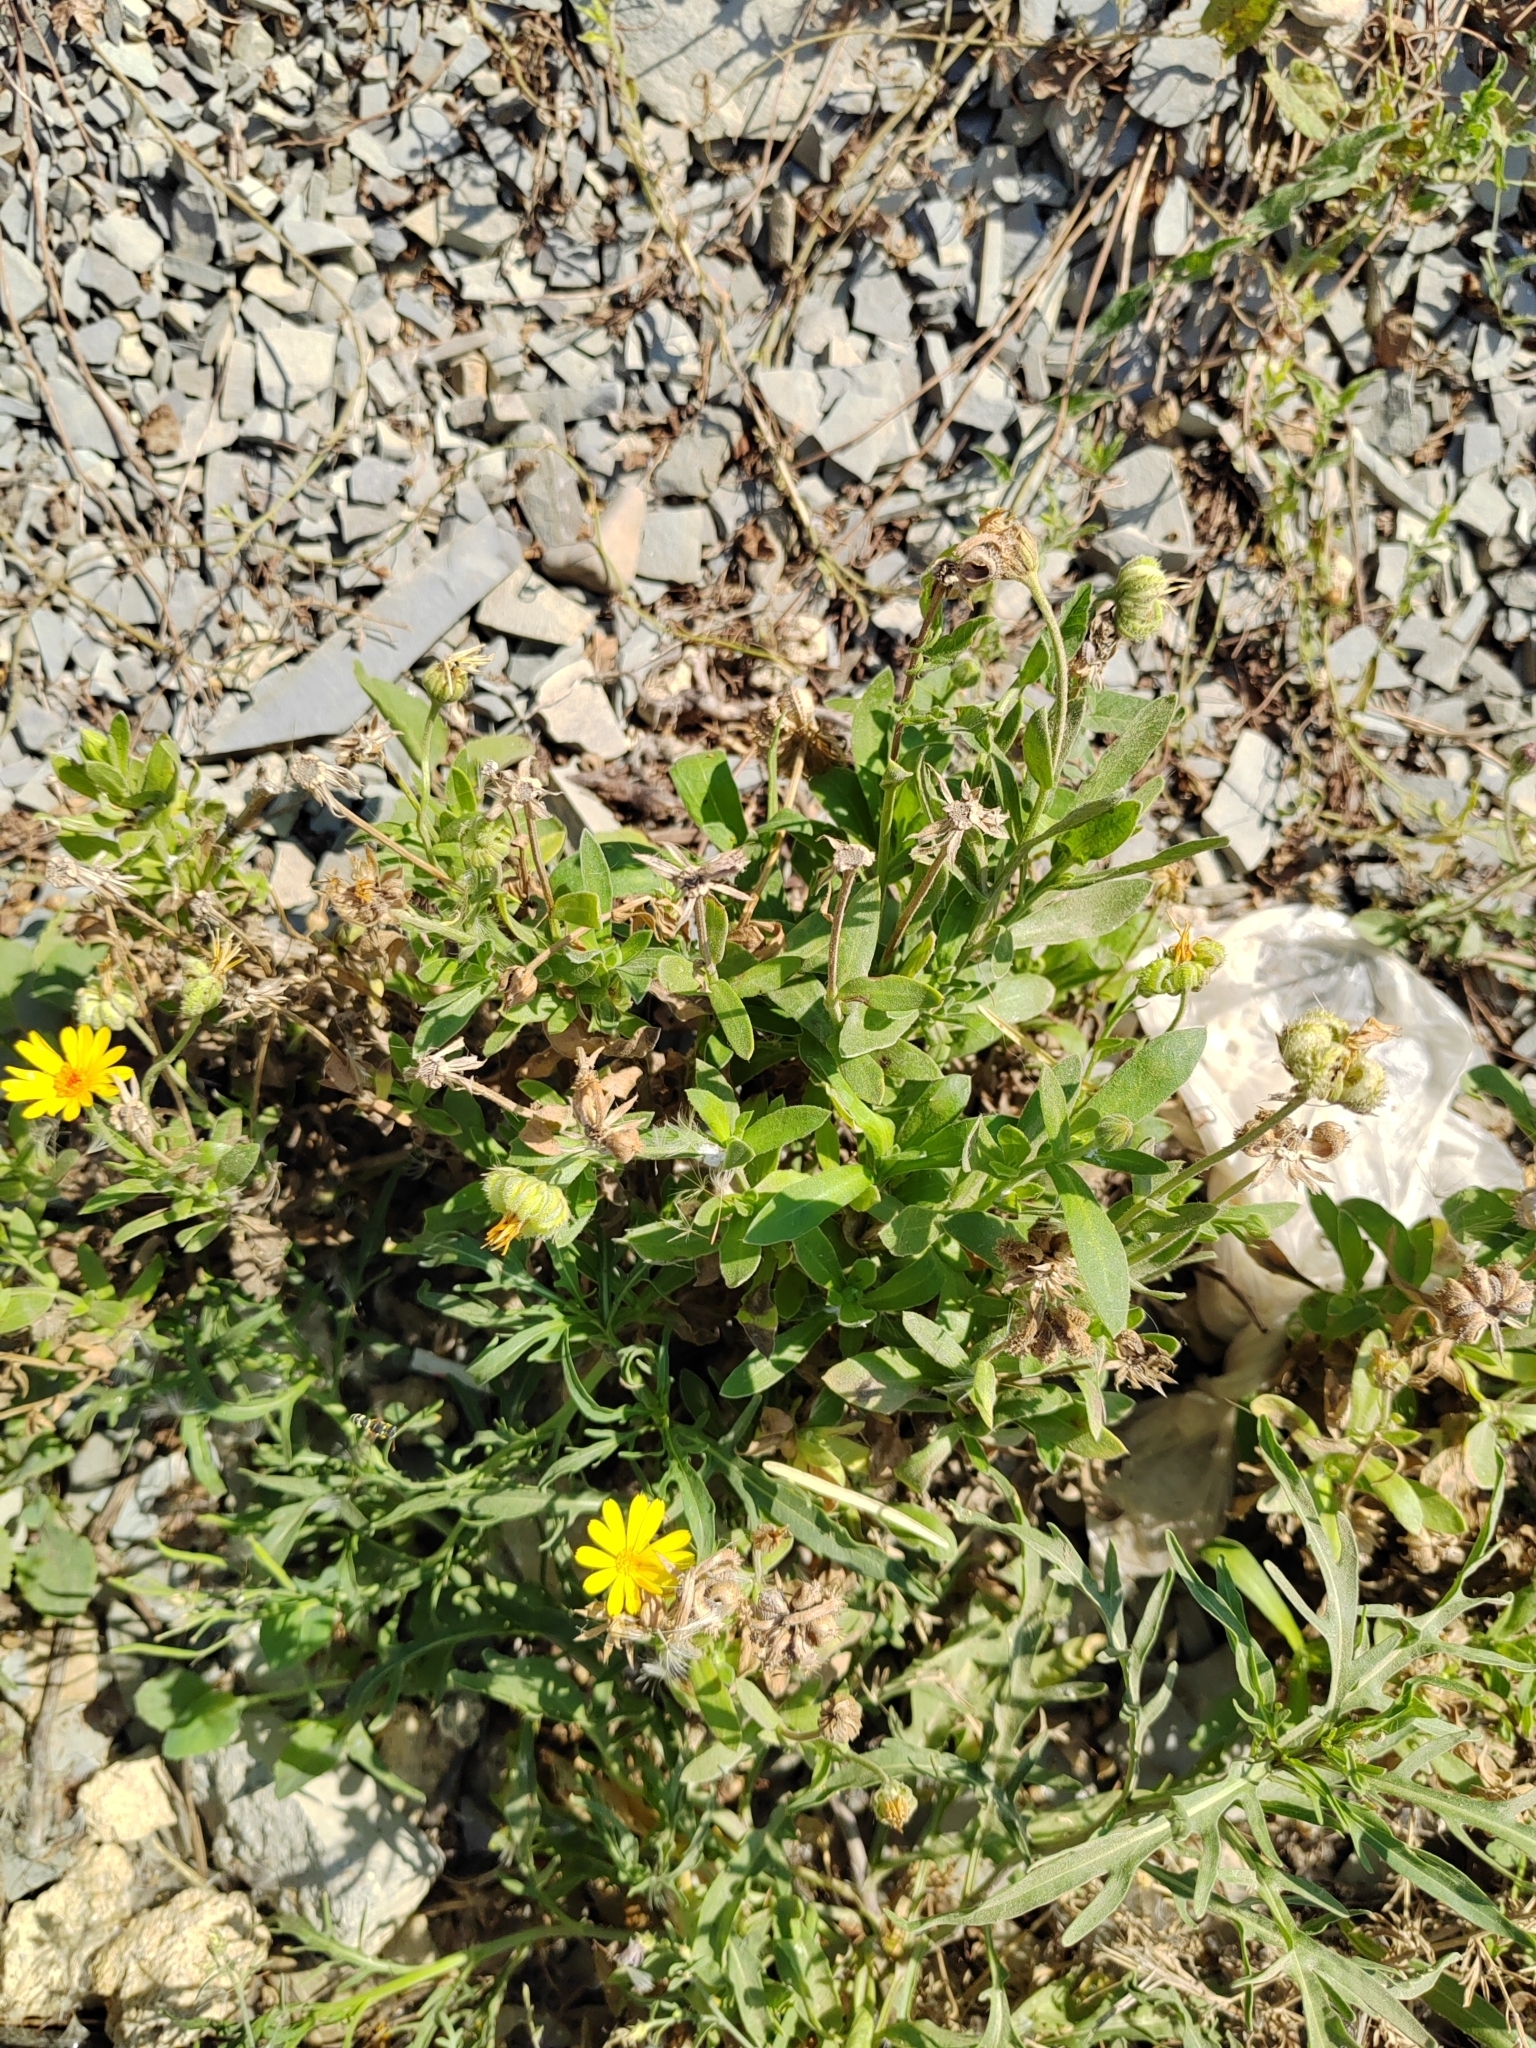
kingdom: Plantae
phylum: Tracheophyta
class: Magnoliopsida
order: Asterales
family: Asteraceae
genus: Calendula
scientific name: Calendula officinalis
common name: Pot marigold
